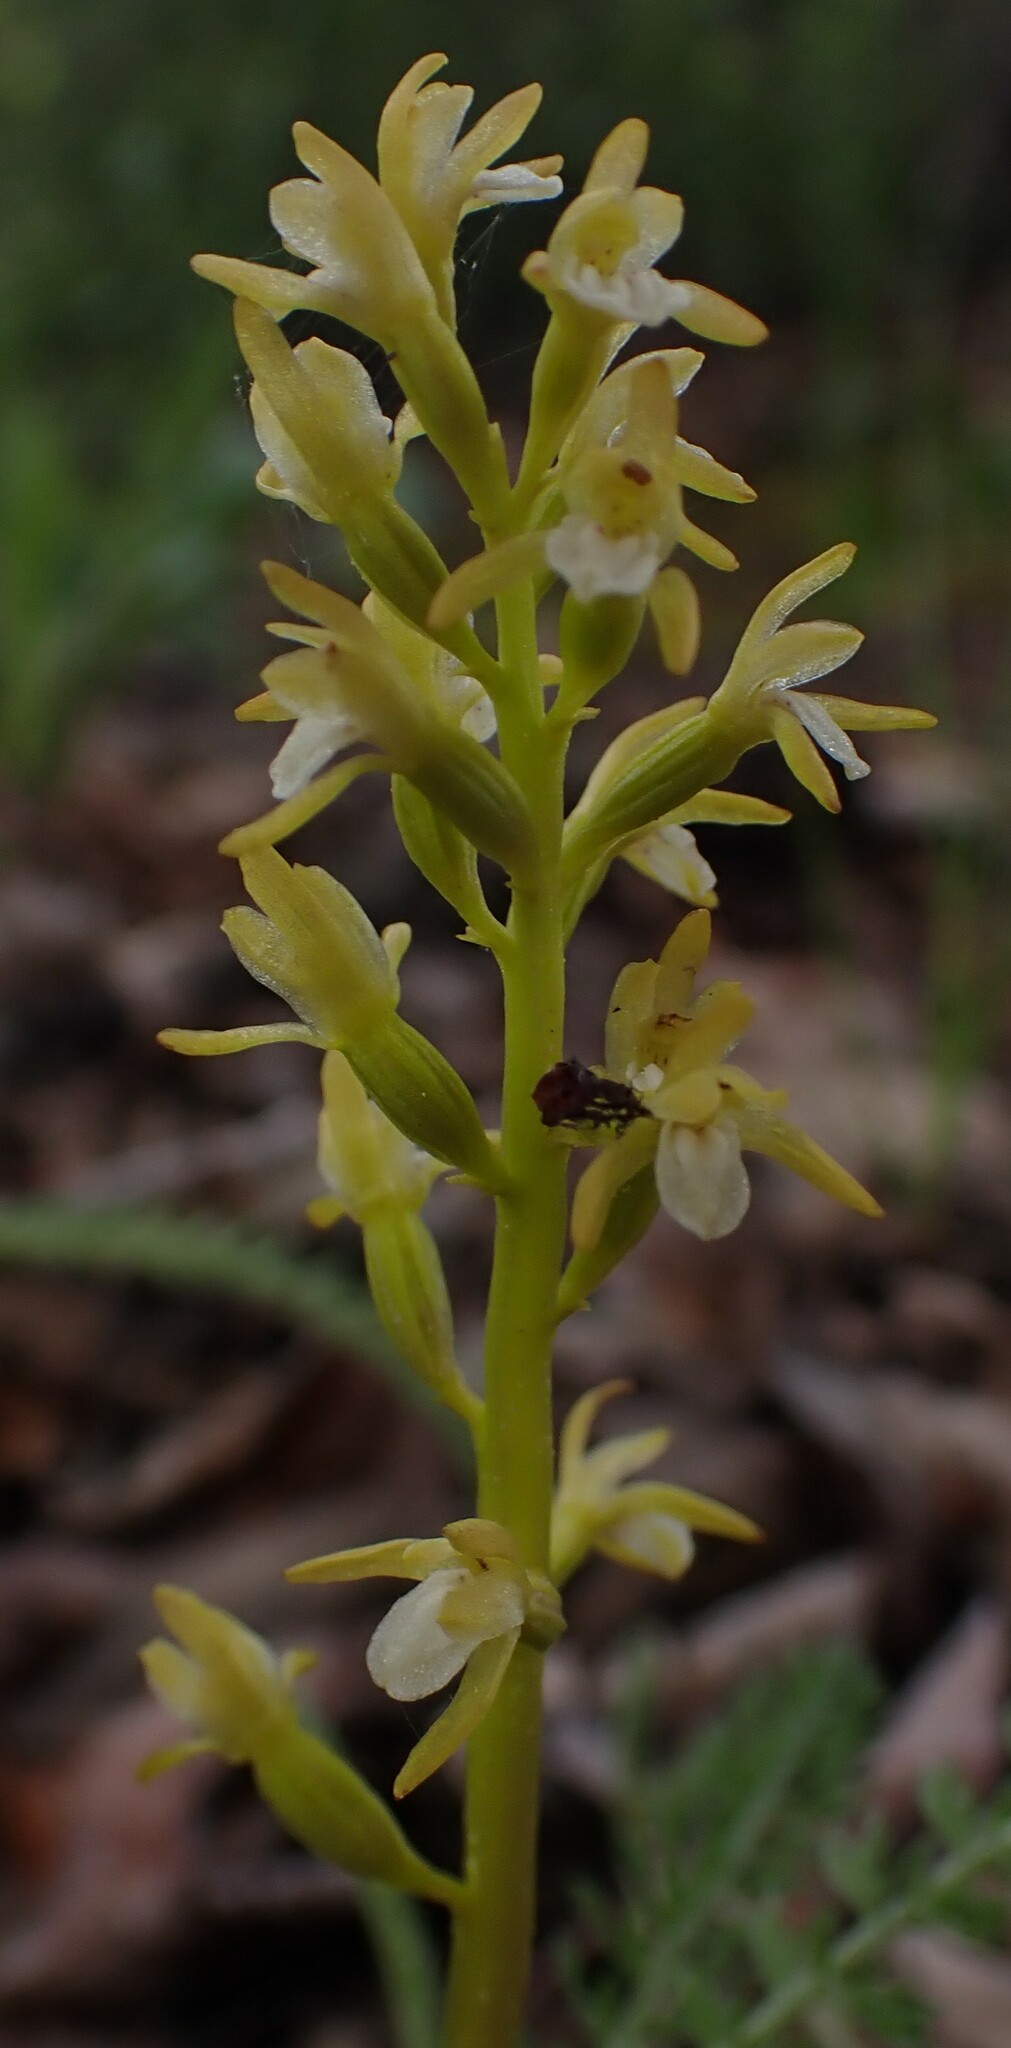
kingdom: Plantae
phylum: Tracheophyta
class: Liliopsida
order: Asparagales
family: Orchidaceae
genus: Corallorhiza
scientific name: Corallorhiza trifida
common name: Yellow coralroot
